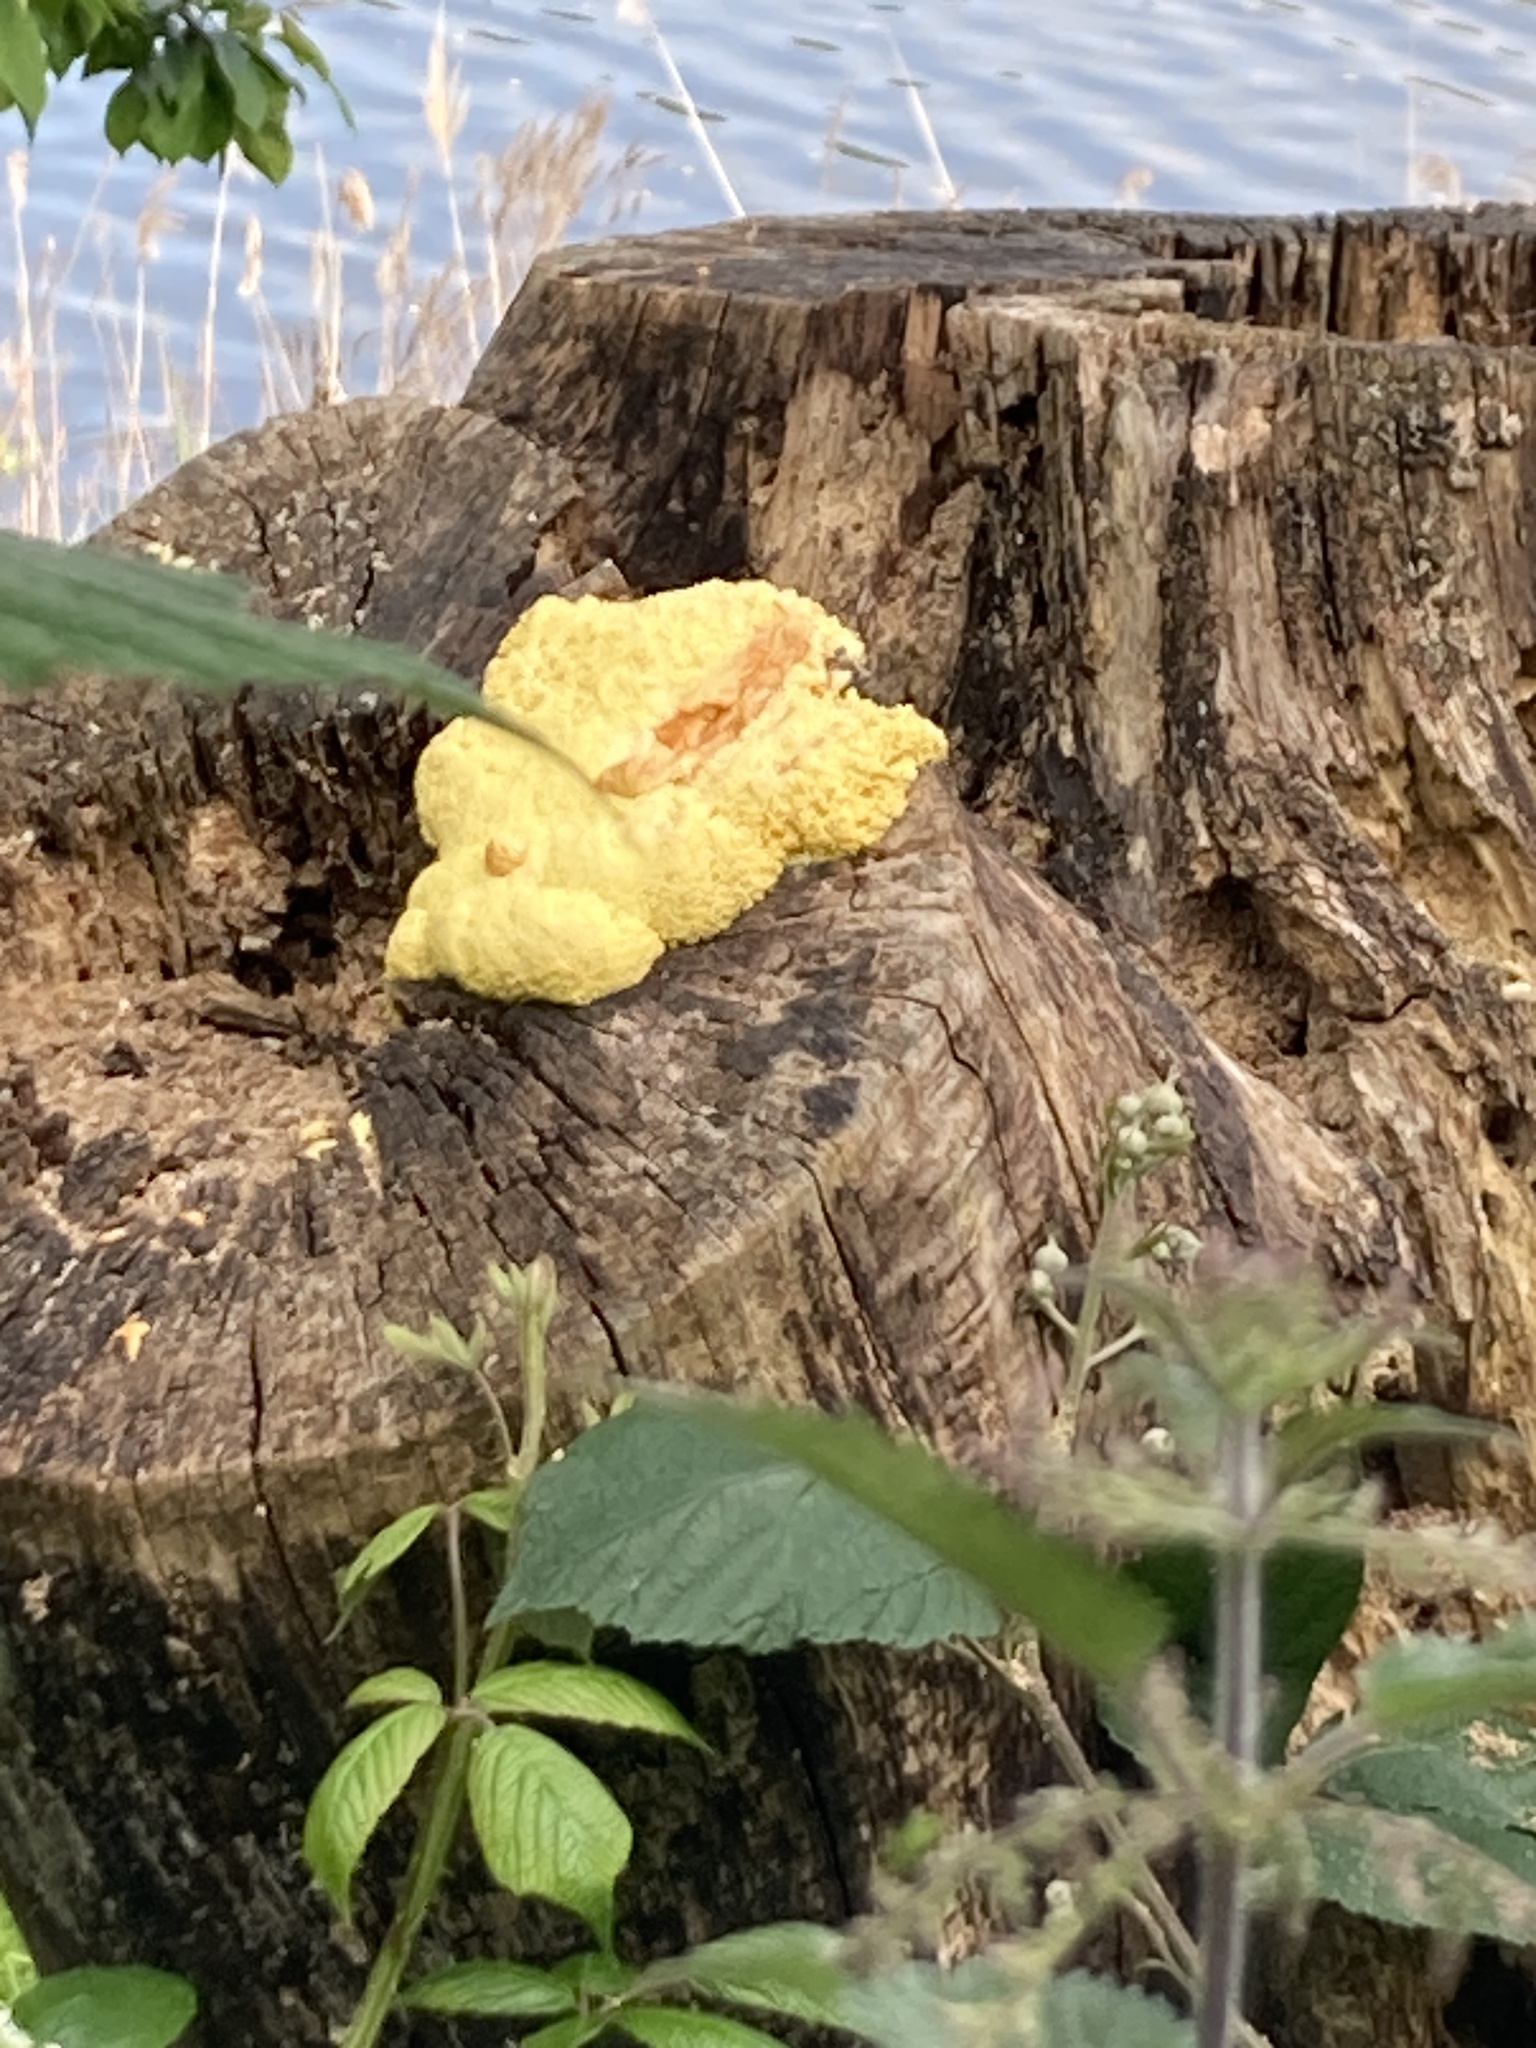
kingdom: Protozoa
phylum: Mycetozoa
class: Myxomycetes
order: Physarales
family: Physaraceae
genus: Fuligo
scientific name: Fuligo septica
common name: Dog vomit slime mold
